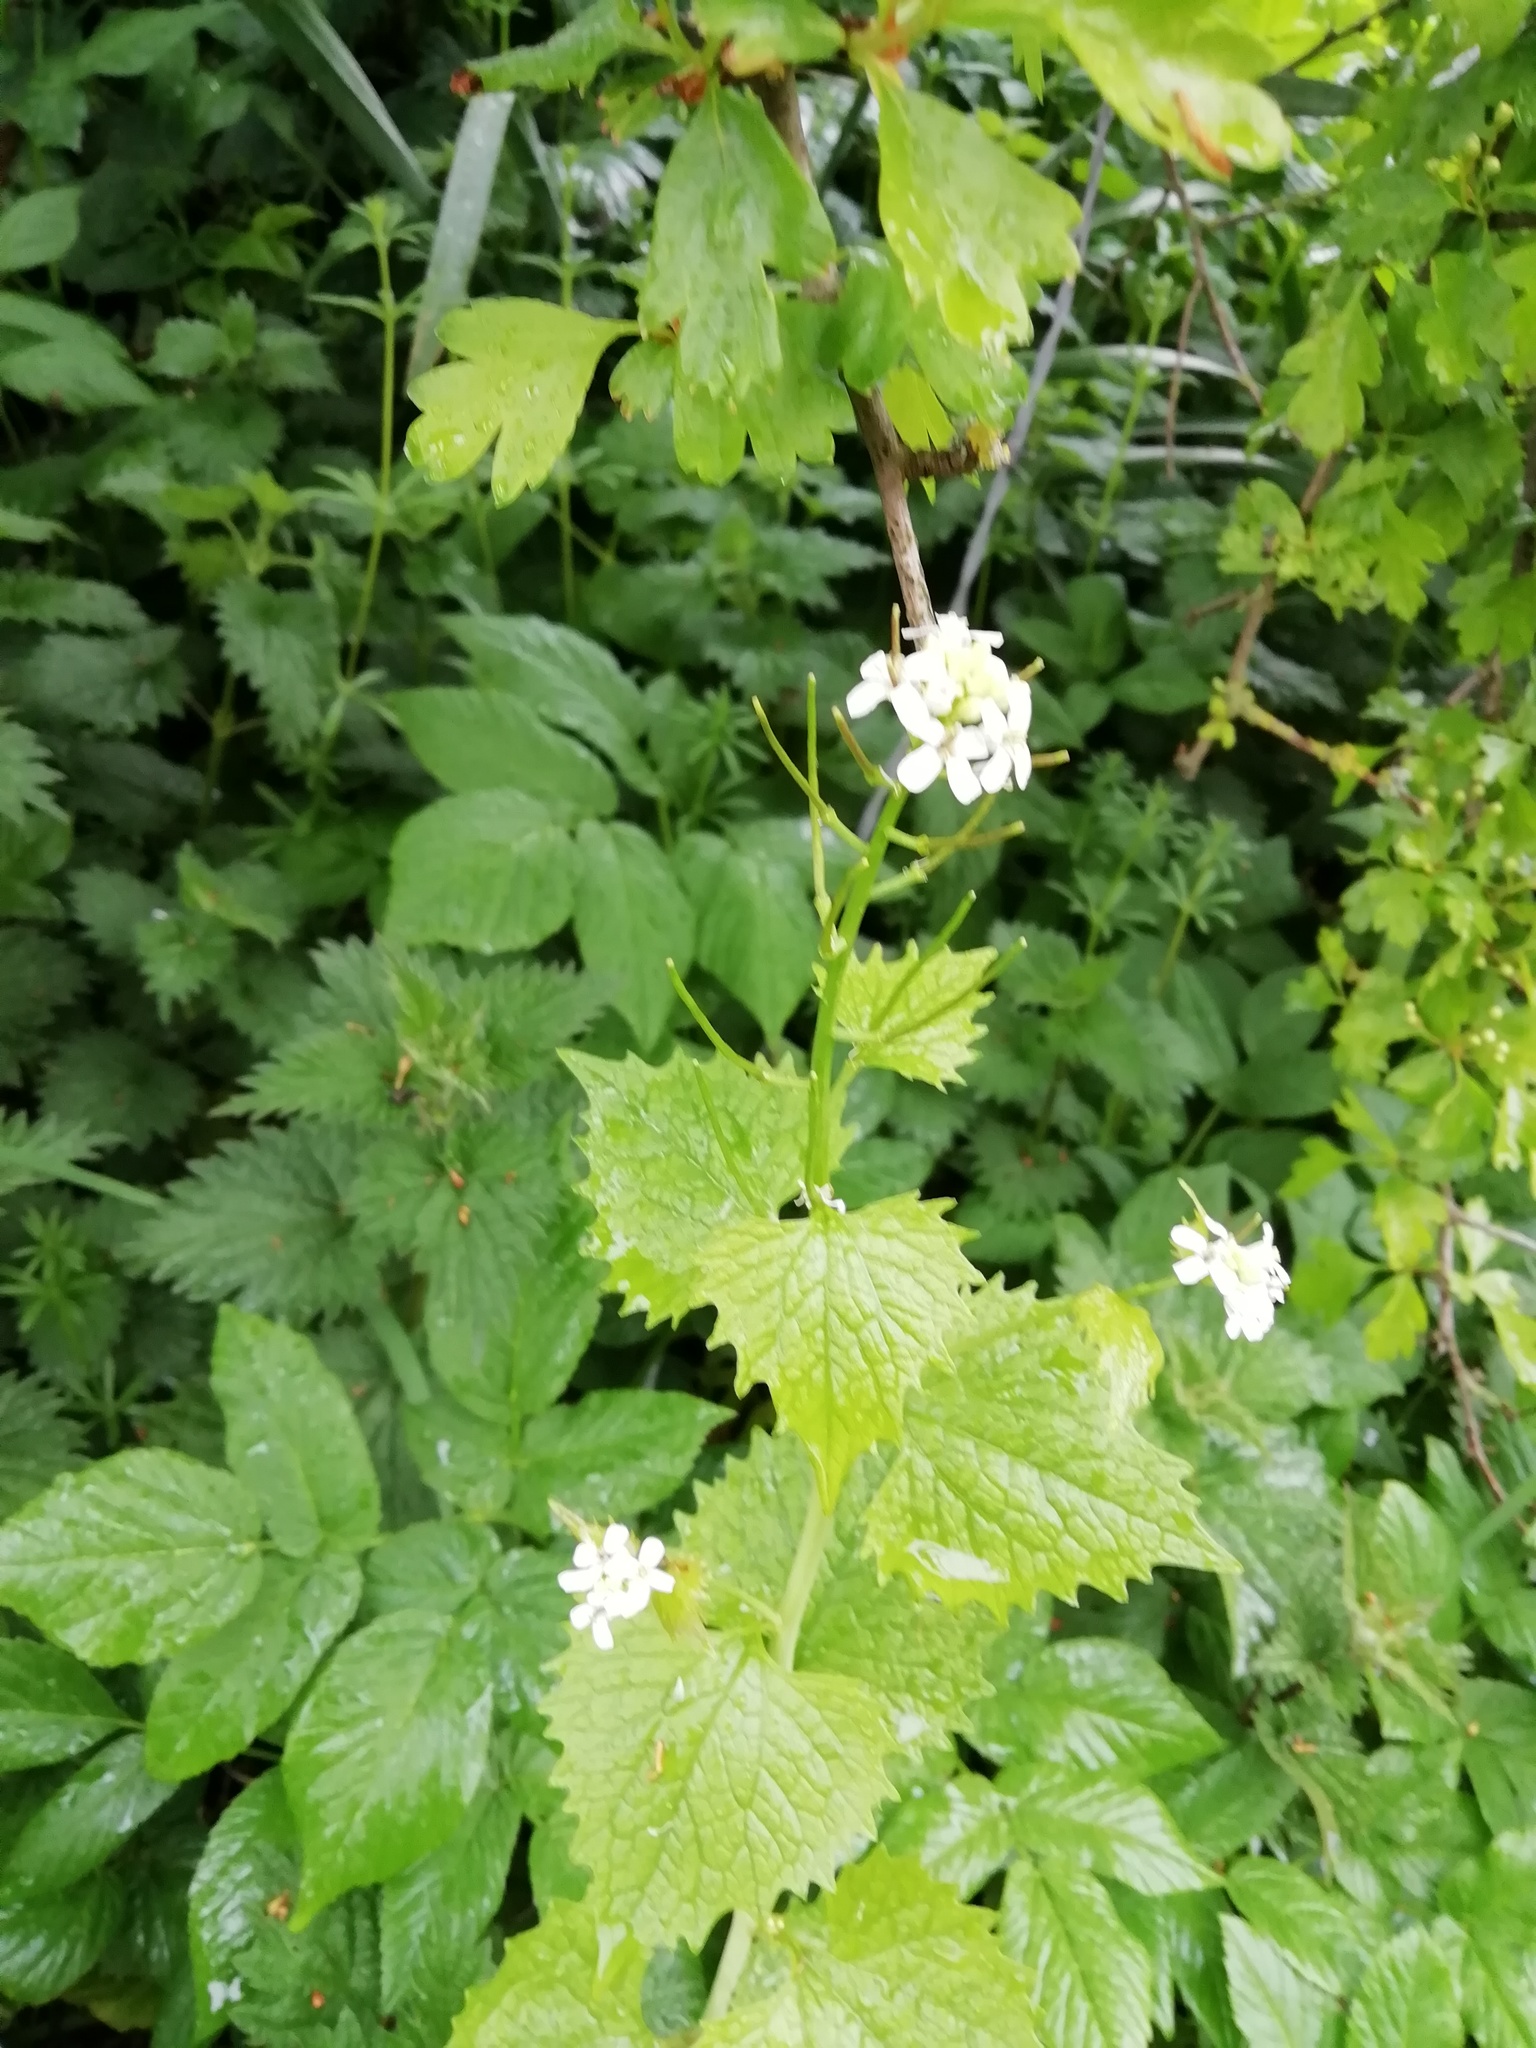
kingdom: Plantae
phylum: Tracheophyta
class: Magnoliopsida
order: Brassicales
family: Brassicaceae
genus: Alliaria
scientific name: Alliaria petiolata
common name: Garlic mustard
